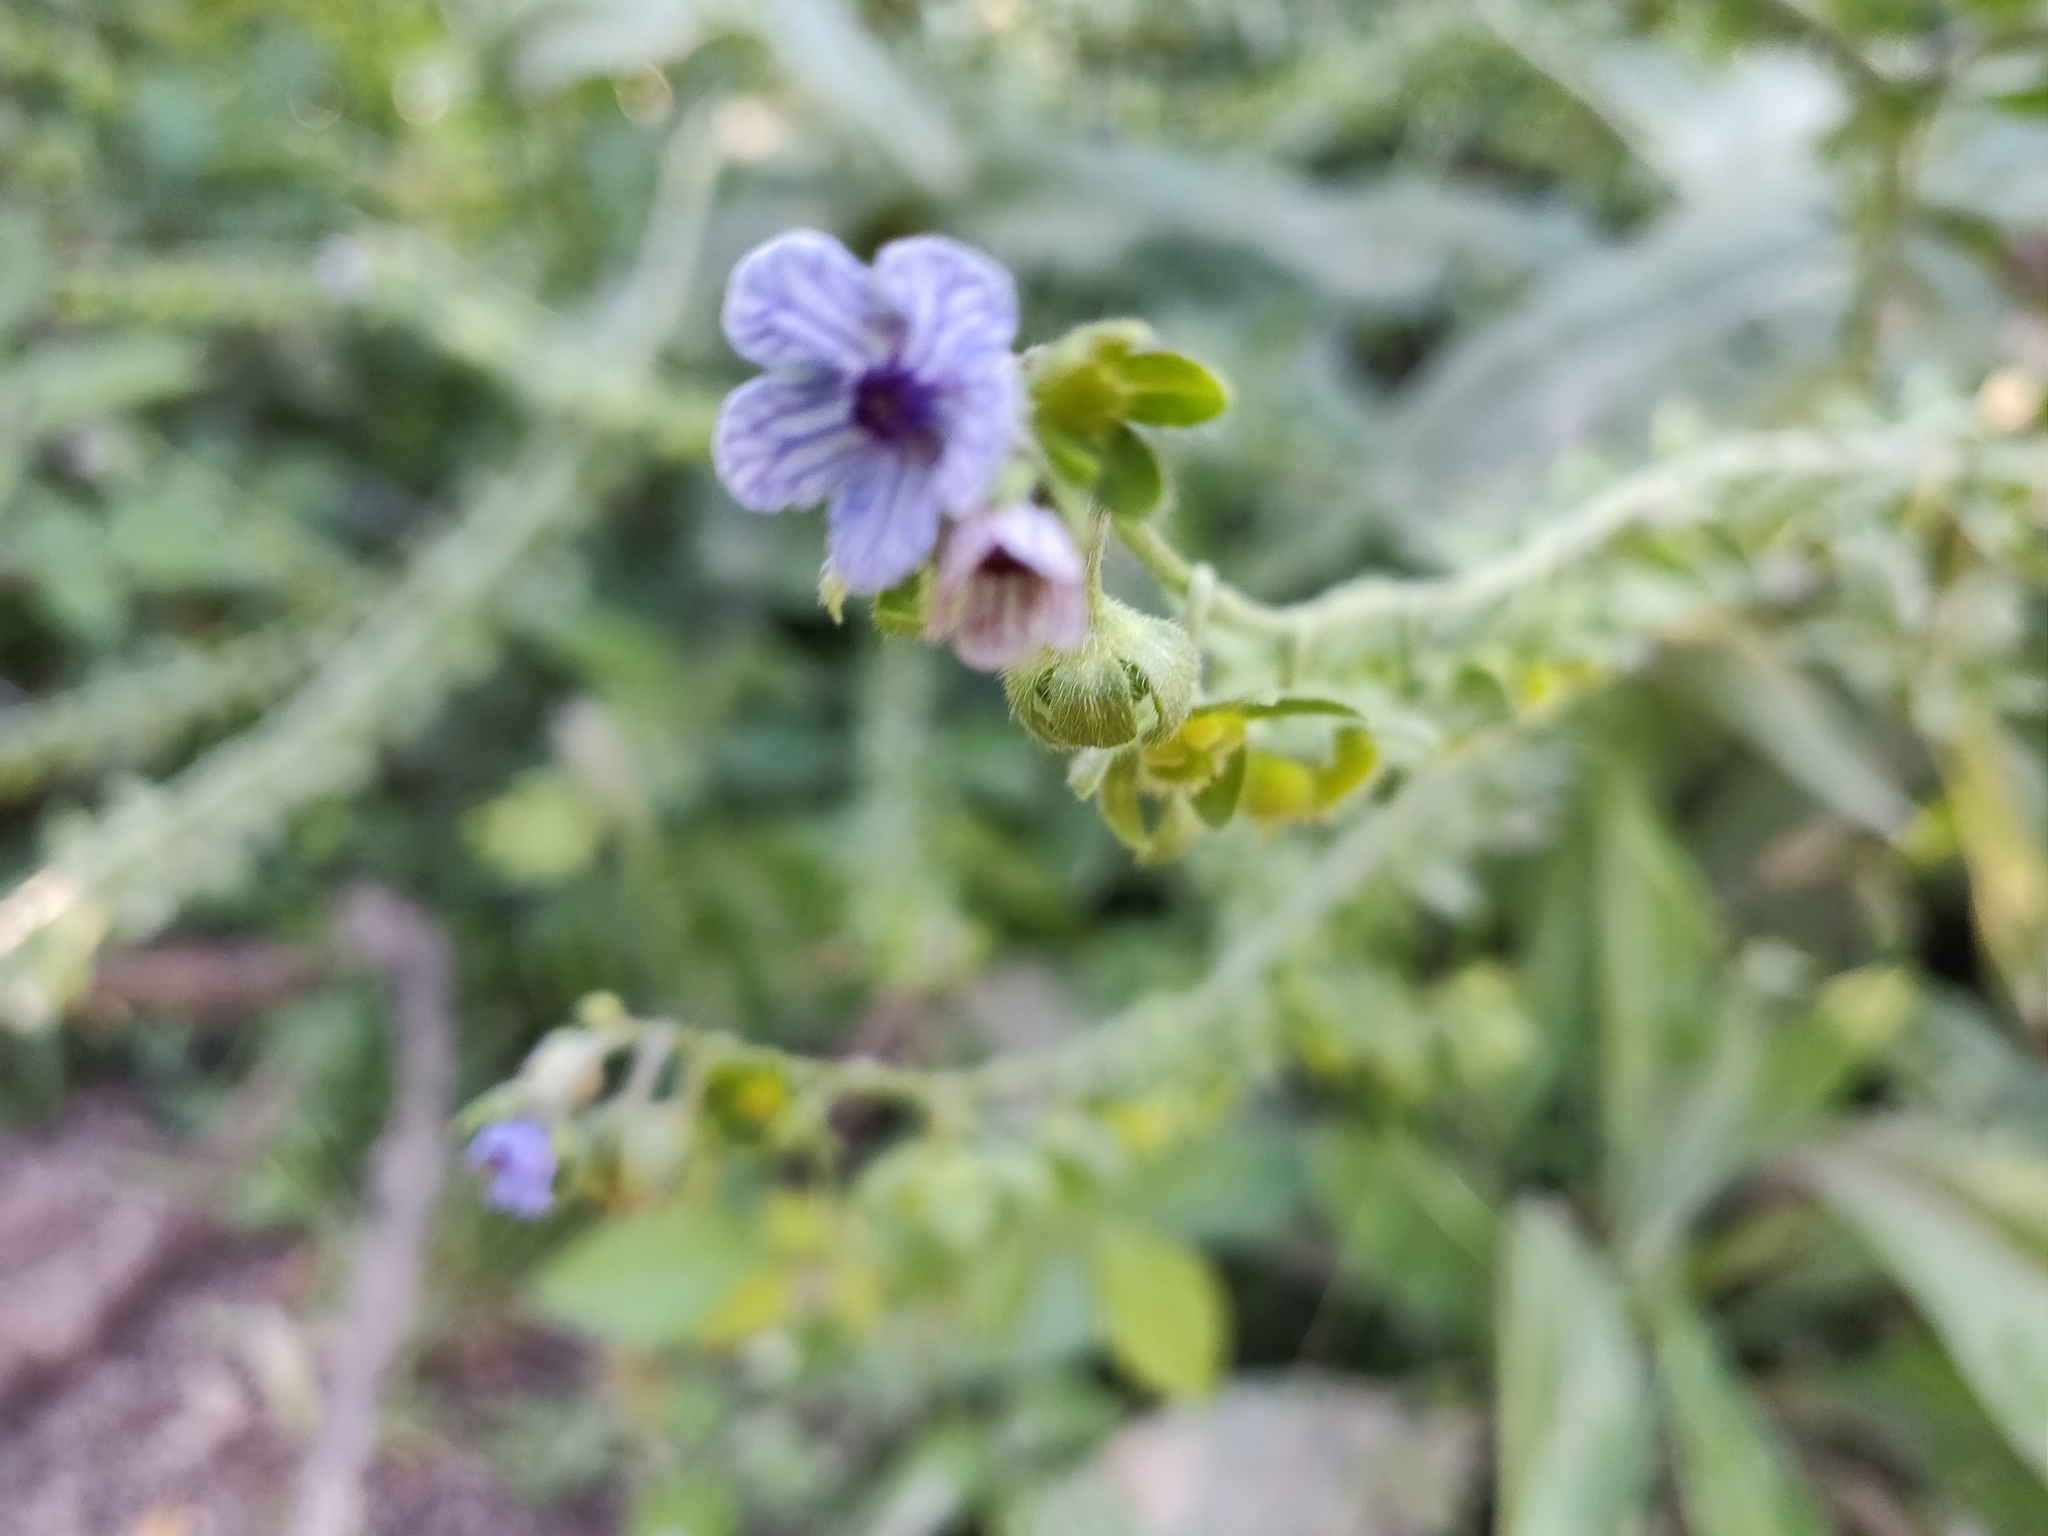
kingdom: Plantae
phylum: Tracheophyta
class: Magnoliopsida
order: Boraginales
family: Boraginaceae
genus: Cynoglossum
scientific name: Cynoglossum creticum
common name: Blue hound's tongue
